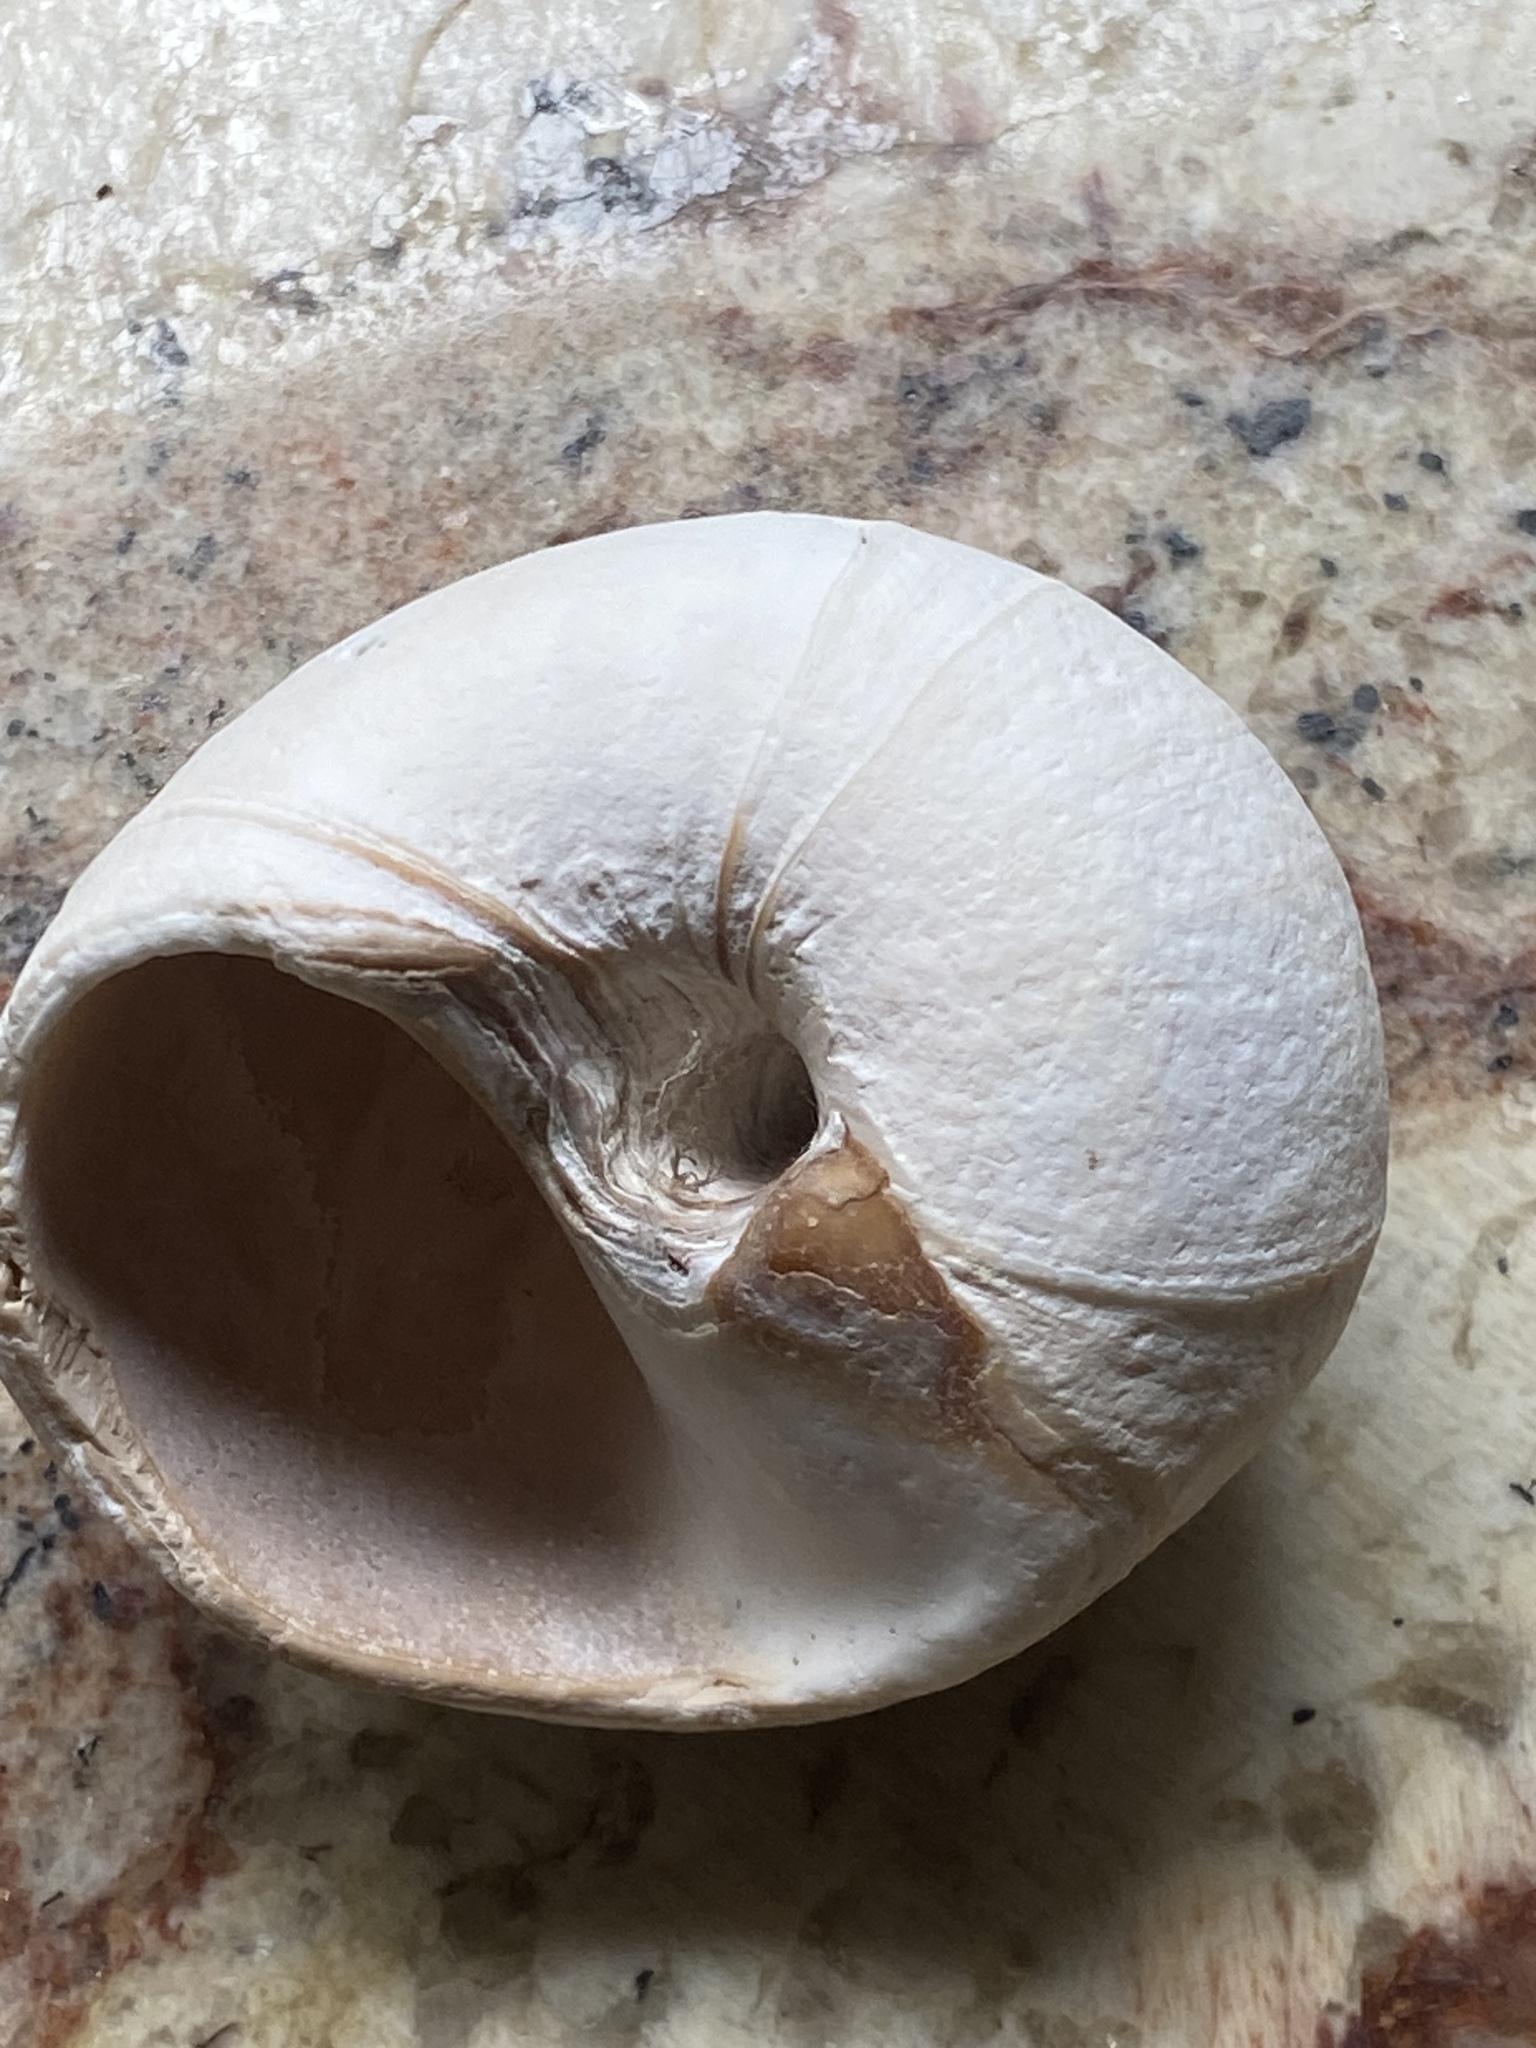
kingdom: Animalia
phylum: Mollusca
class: Gastropoda
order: Littorinimorpha
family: Naticidae
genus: Neverita
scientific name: Neverita lewisii
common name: Lewis' moonsnail
